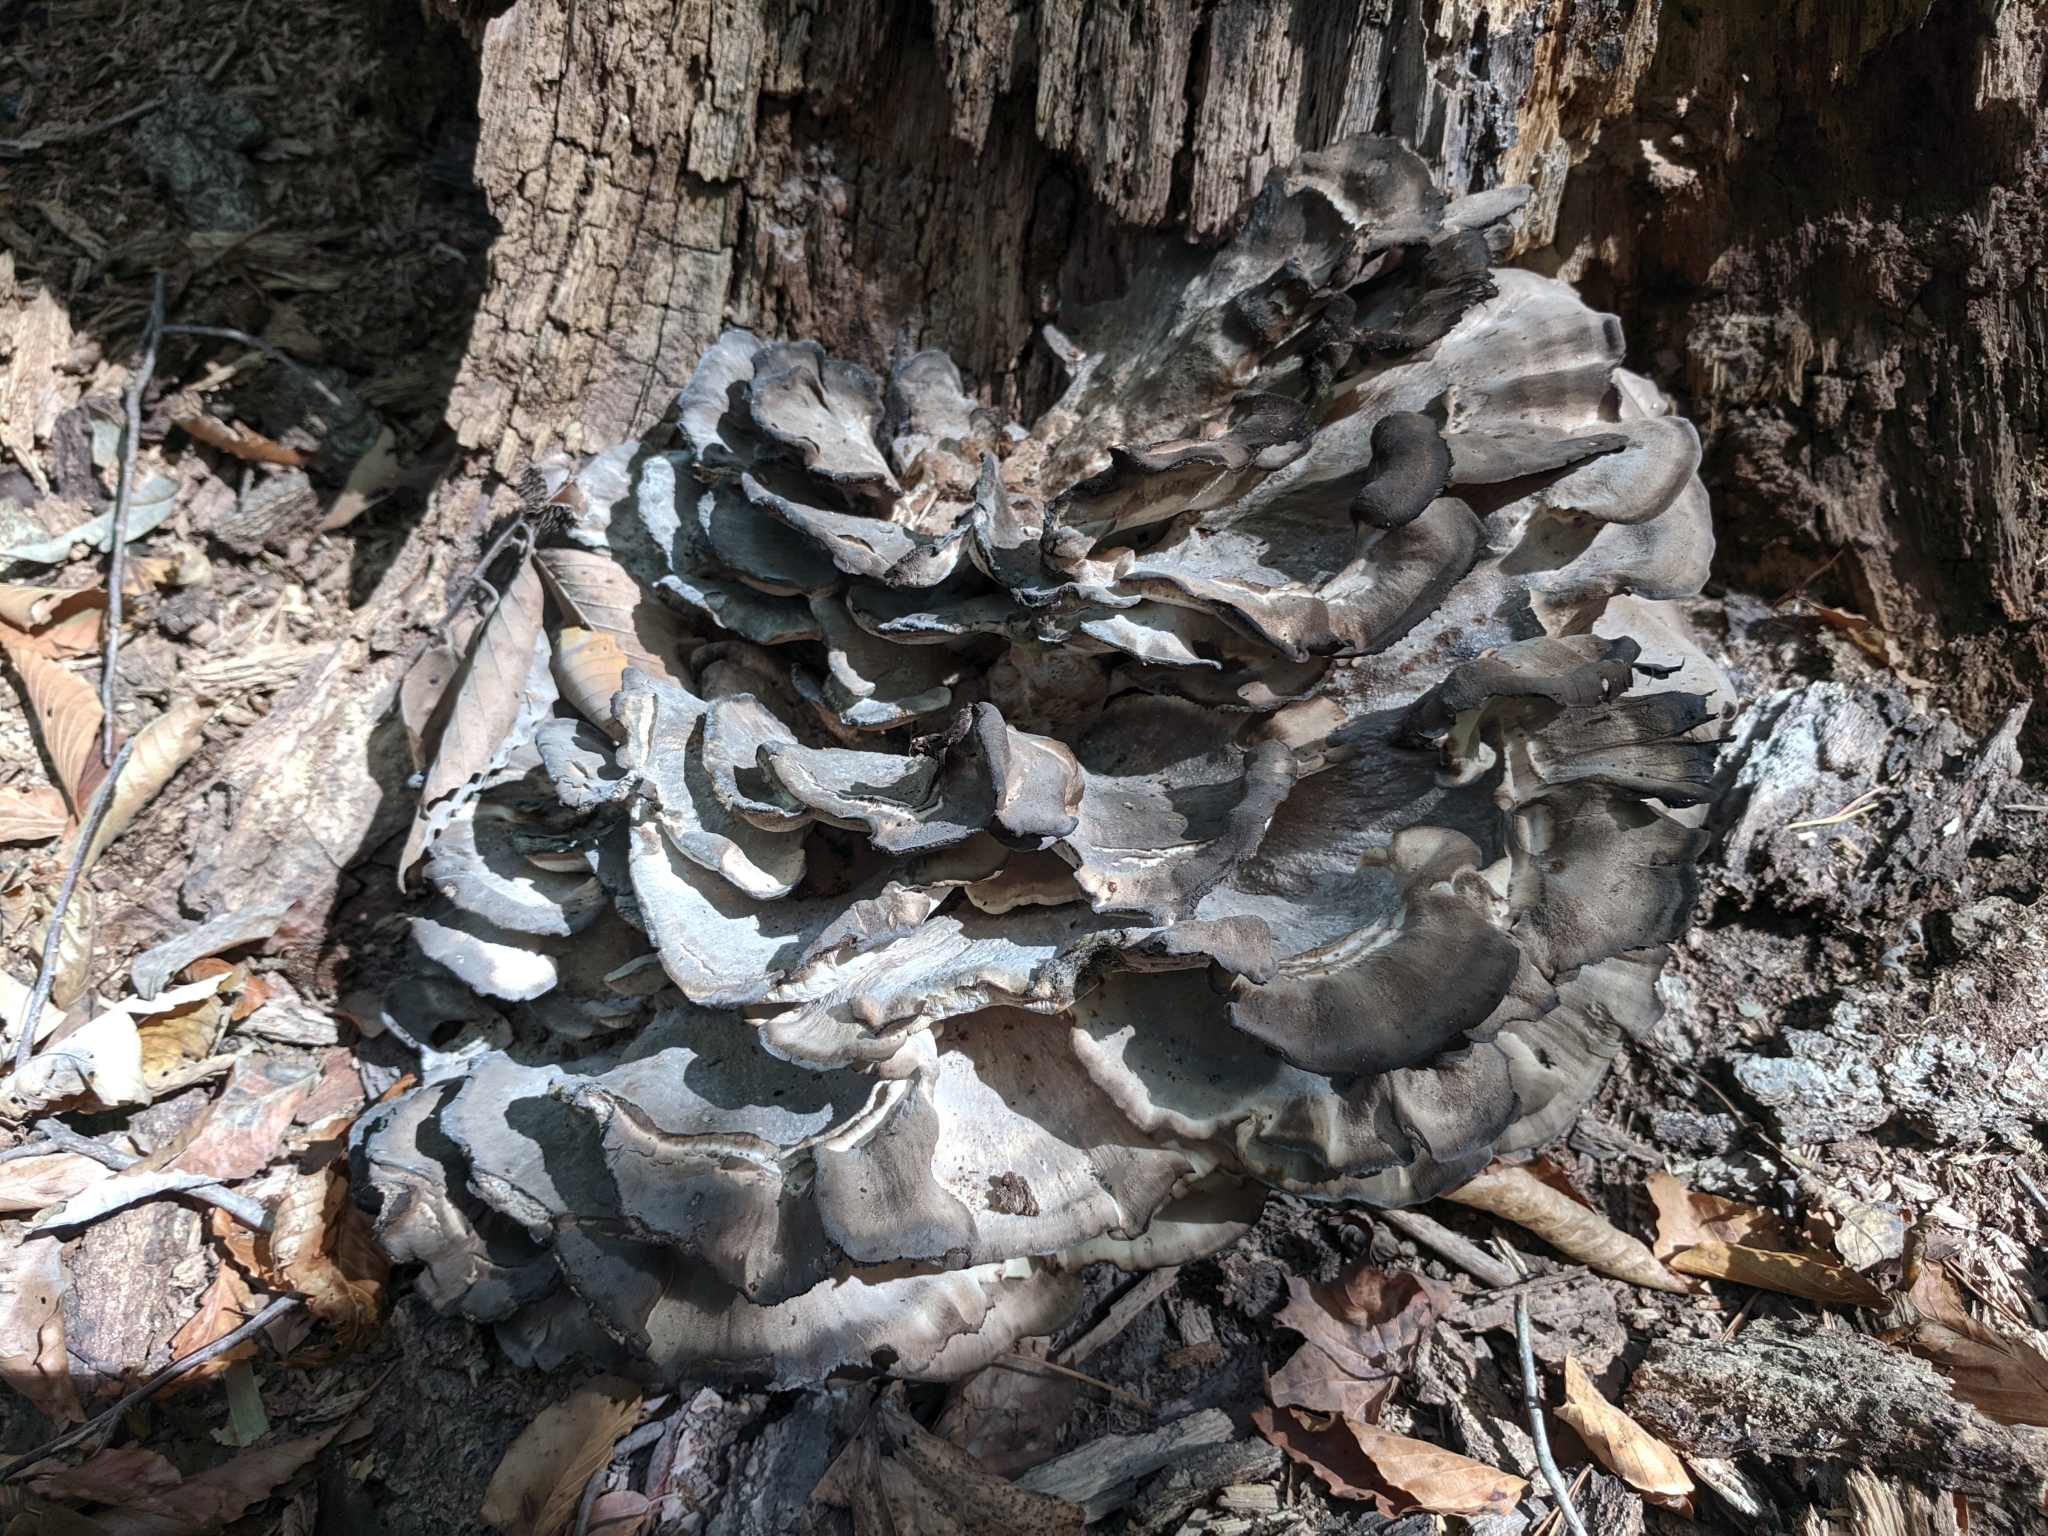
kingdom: Fungi
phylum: Basidiomycota
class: Agaricomycetes
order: Polyporales
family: Meripilaceae
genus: Meripilus
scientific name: Meripilus sumstinei
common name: Black-staining polypore
